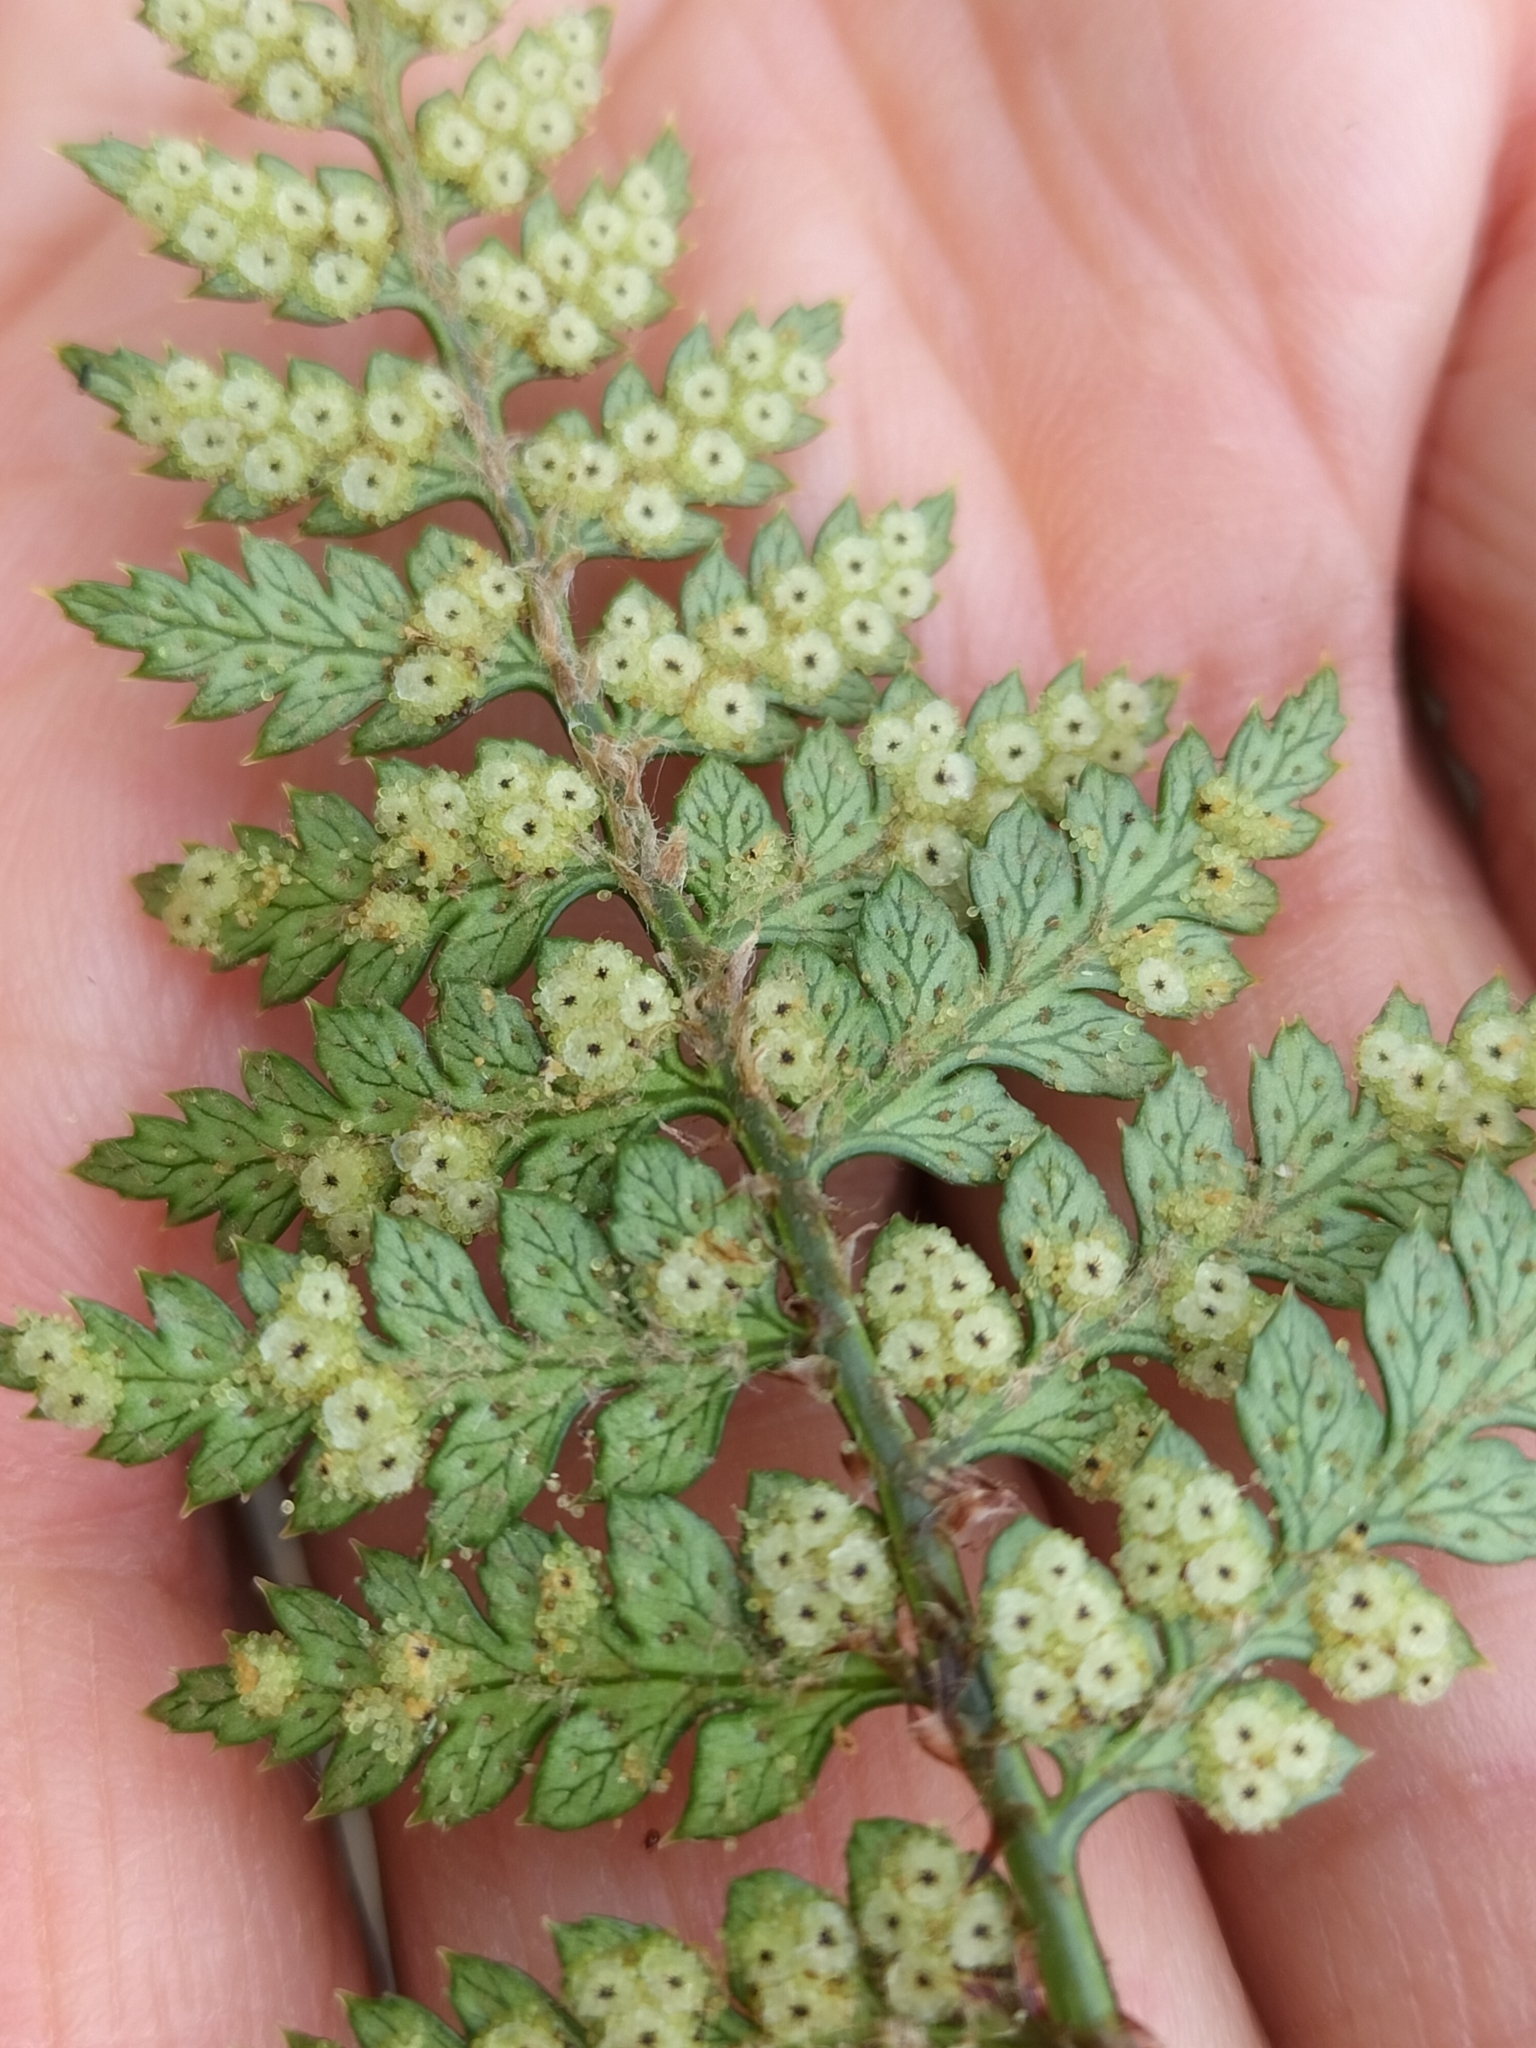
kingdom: Plantae
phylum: Tracheophyta
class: Polypodiopsida
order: Polypodiales
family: Dryopteridaceae
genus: Polystichum
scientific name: Polystichum oculatum
